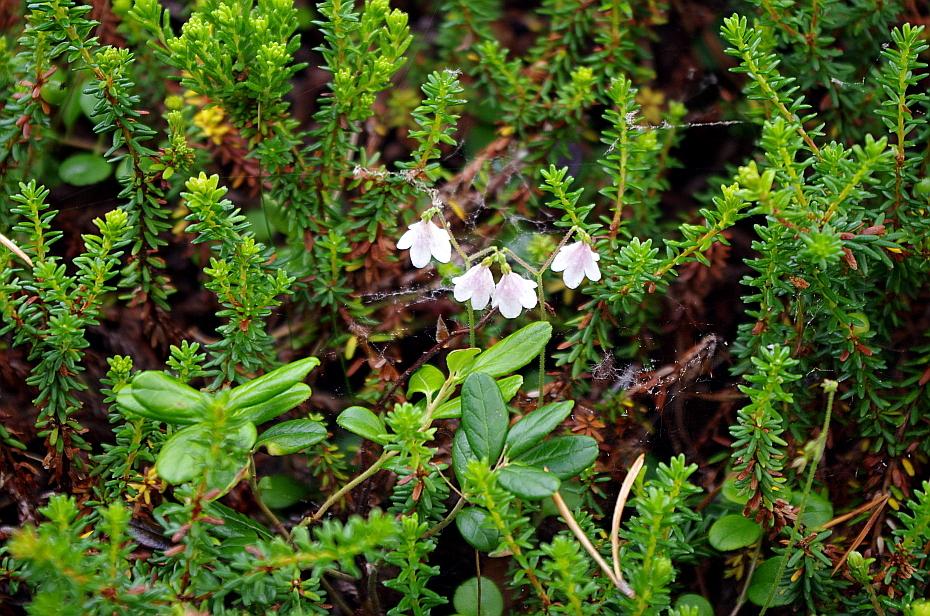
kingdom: Plantae
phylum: Tracheophyta
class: Magnoliopsida
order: Dipsacales
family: Caprifoliaceae
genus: Linnaea
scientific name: Linnaea borealis
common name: Twinflower
